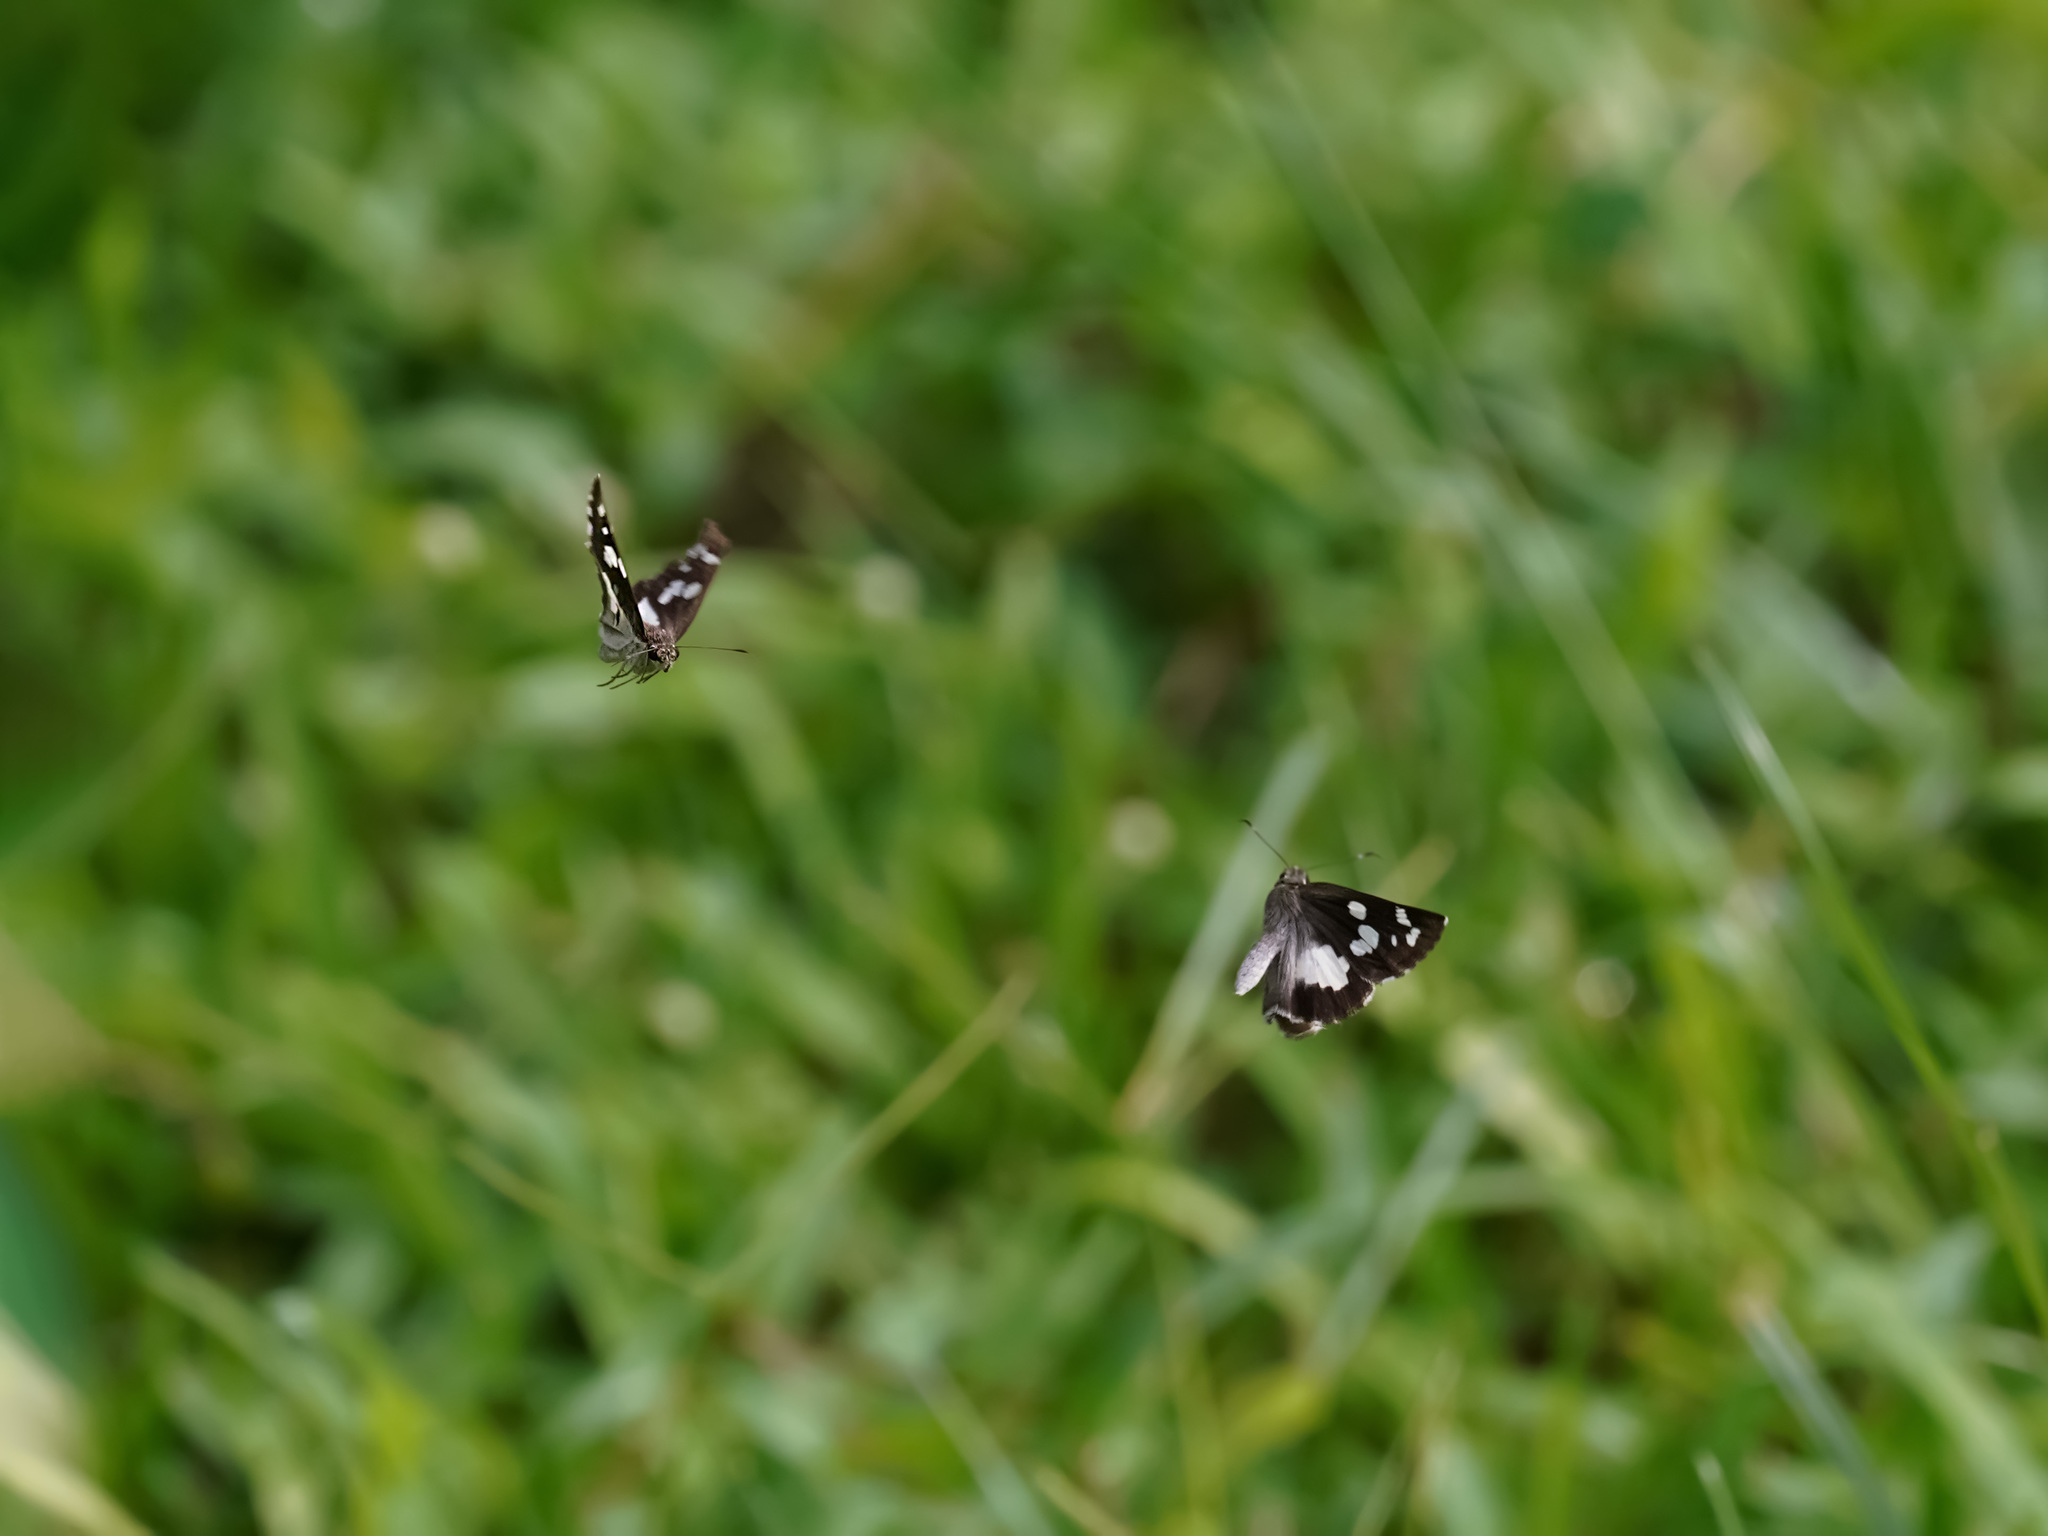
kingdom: Animalia
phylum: Arthropoda
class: Insecta
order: Lepidoptera
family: Hesperiidae
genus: Udaspes
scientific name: Udaspes folus
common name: Grass demon
